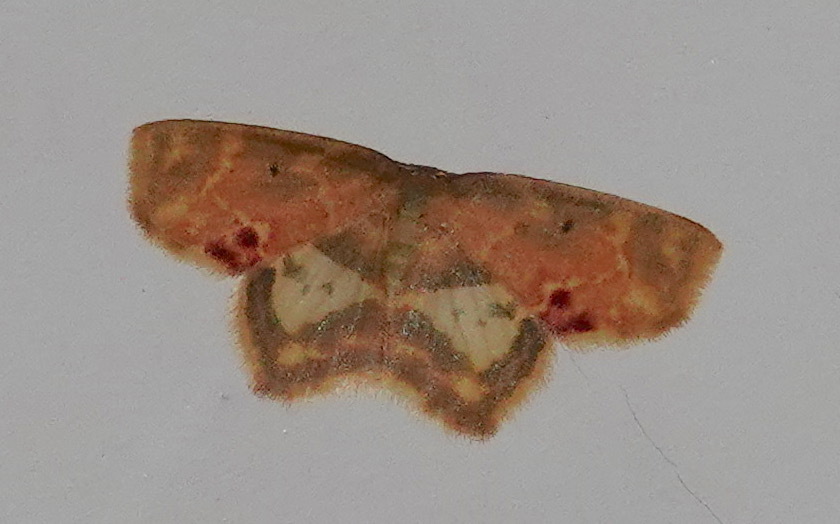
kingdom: Animalia
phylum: Arthropoda
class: Insecta
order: Lepidoptera
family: Geometridae
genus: Chrysocraspeda
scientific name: Chrysocraspeda dilucida
